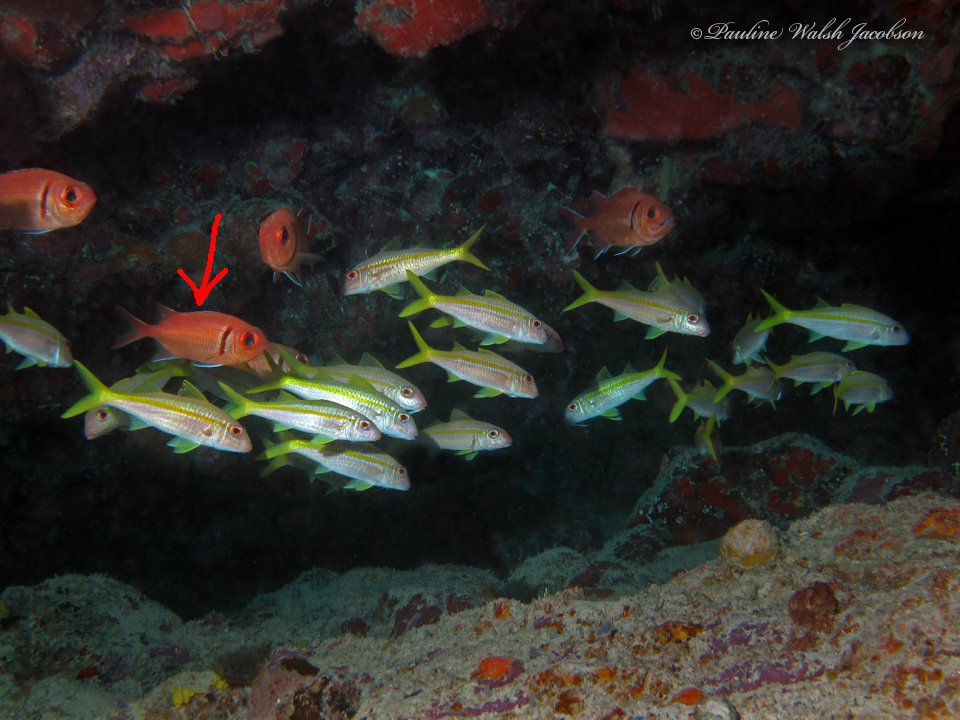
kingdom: Animalia
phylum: Chordata
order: Beryciformes
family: Holocentridae
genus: Myripristis
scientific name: Myripristis jacobus
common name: Blackbar soldierfish
